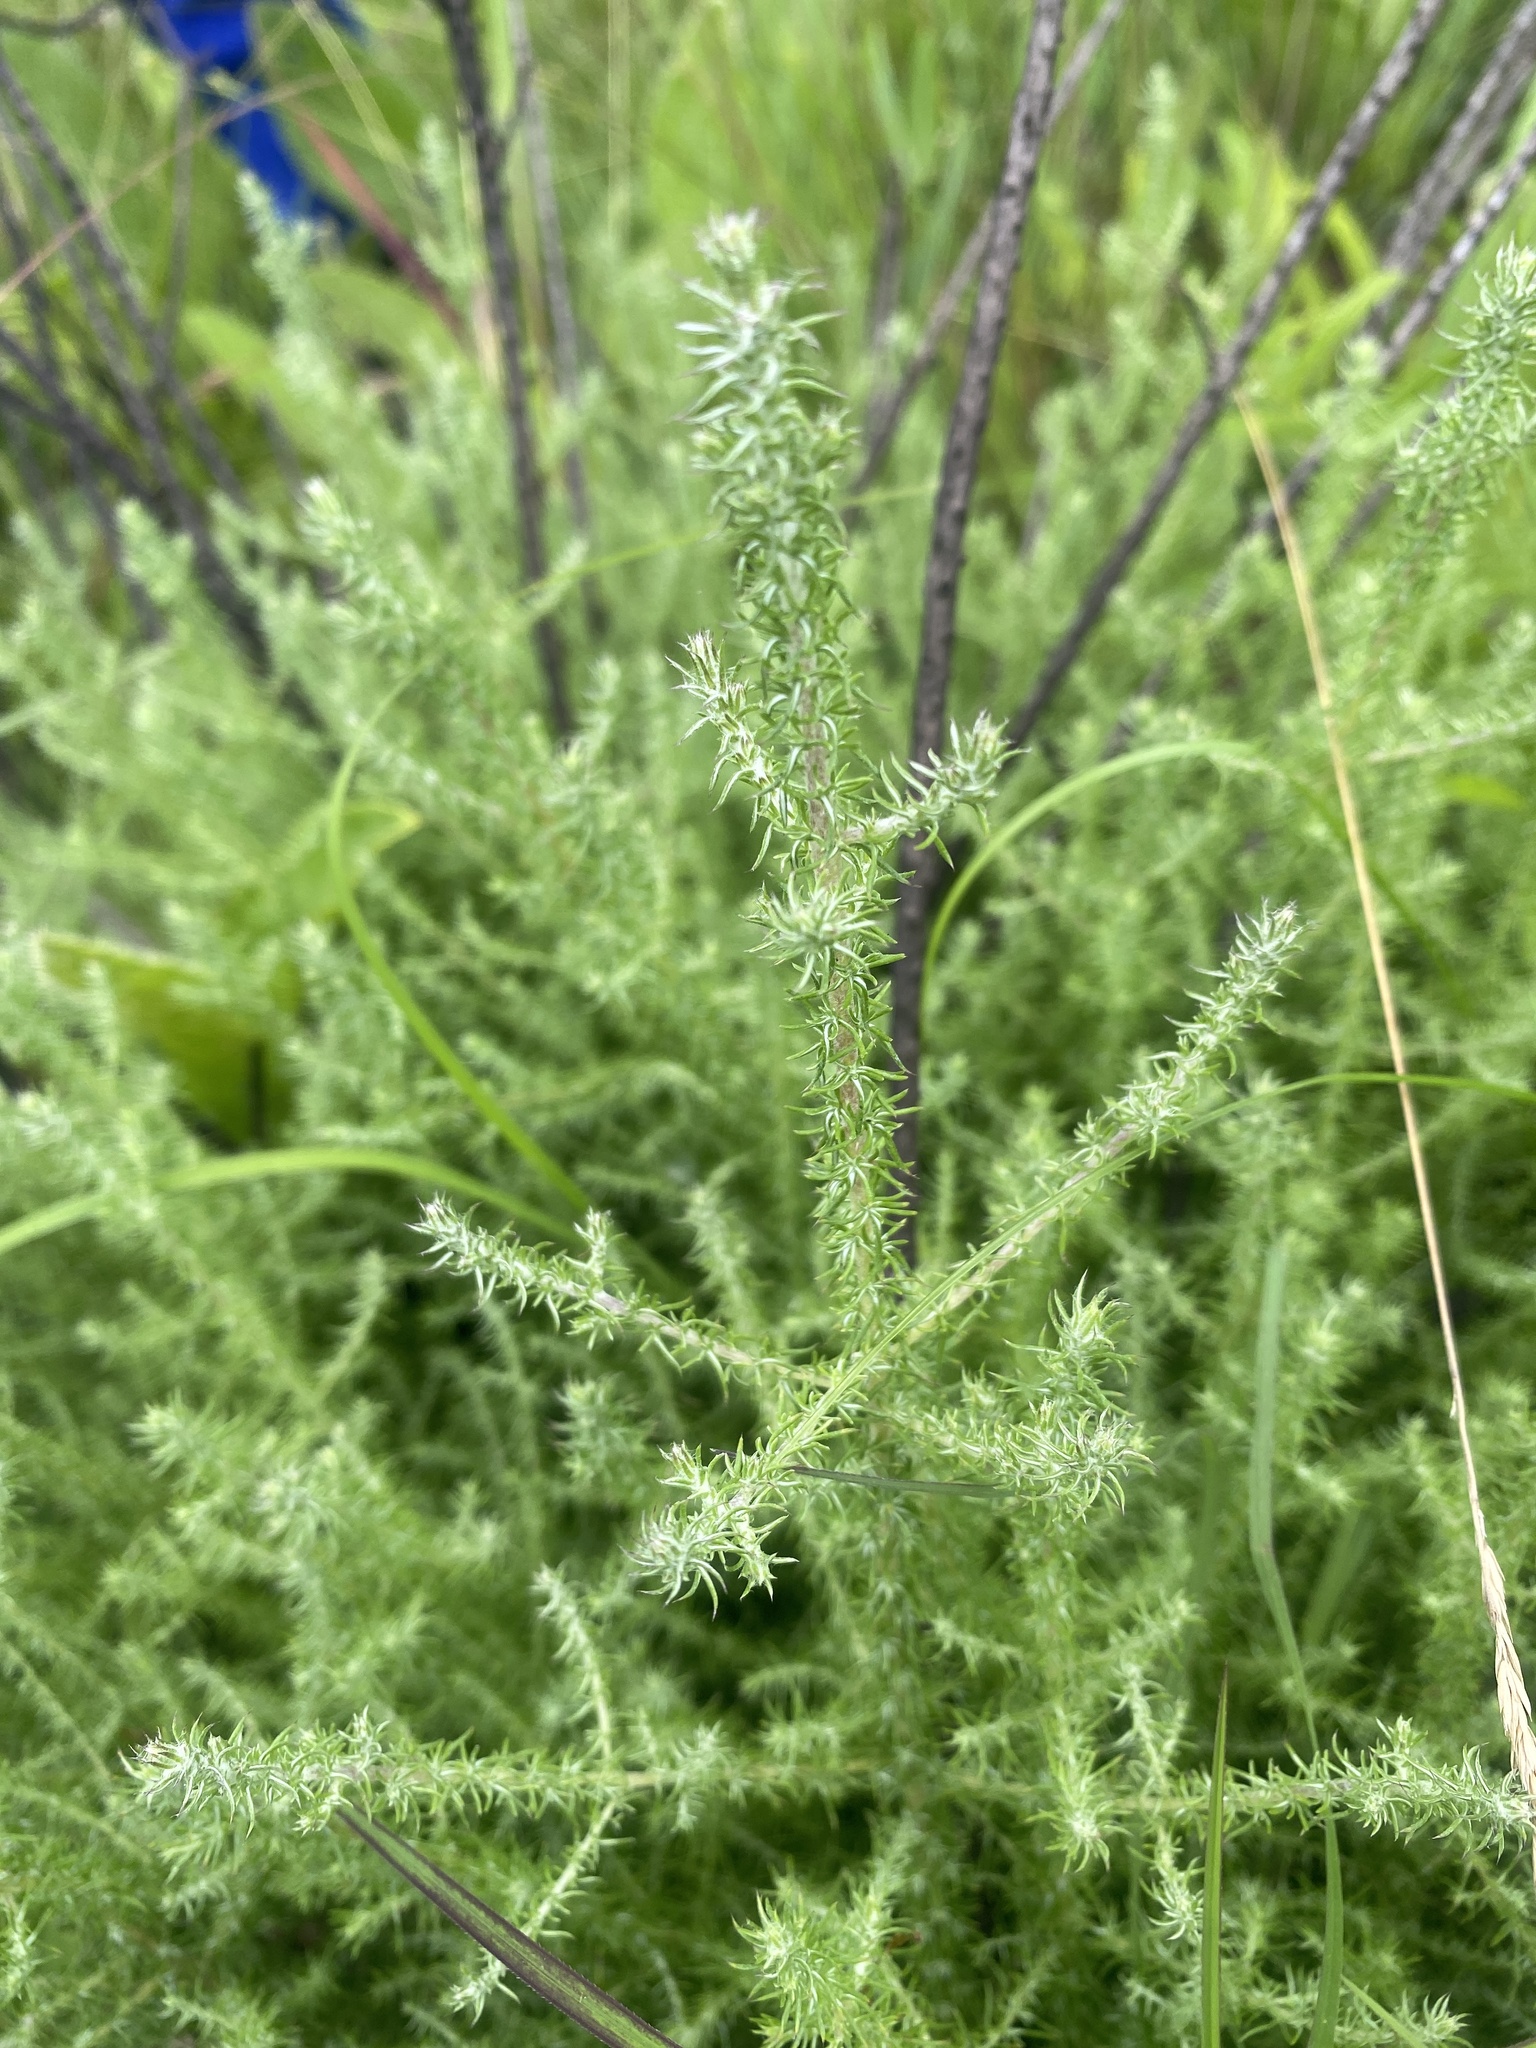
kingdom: Plantae
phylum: Tracheophyta
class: Magnoliopsida
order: Asterales
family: Asteraceae
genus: Seriphium
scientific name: Seriphium
